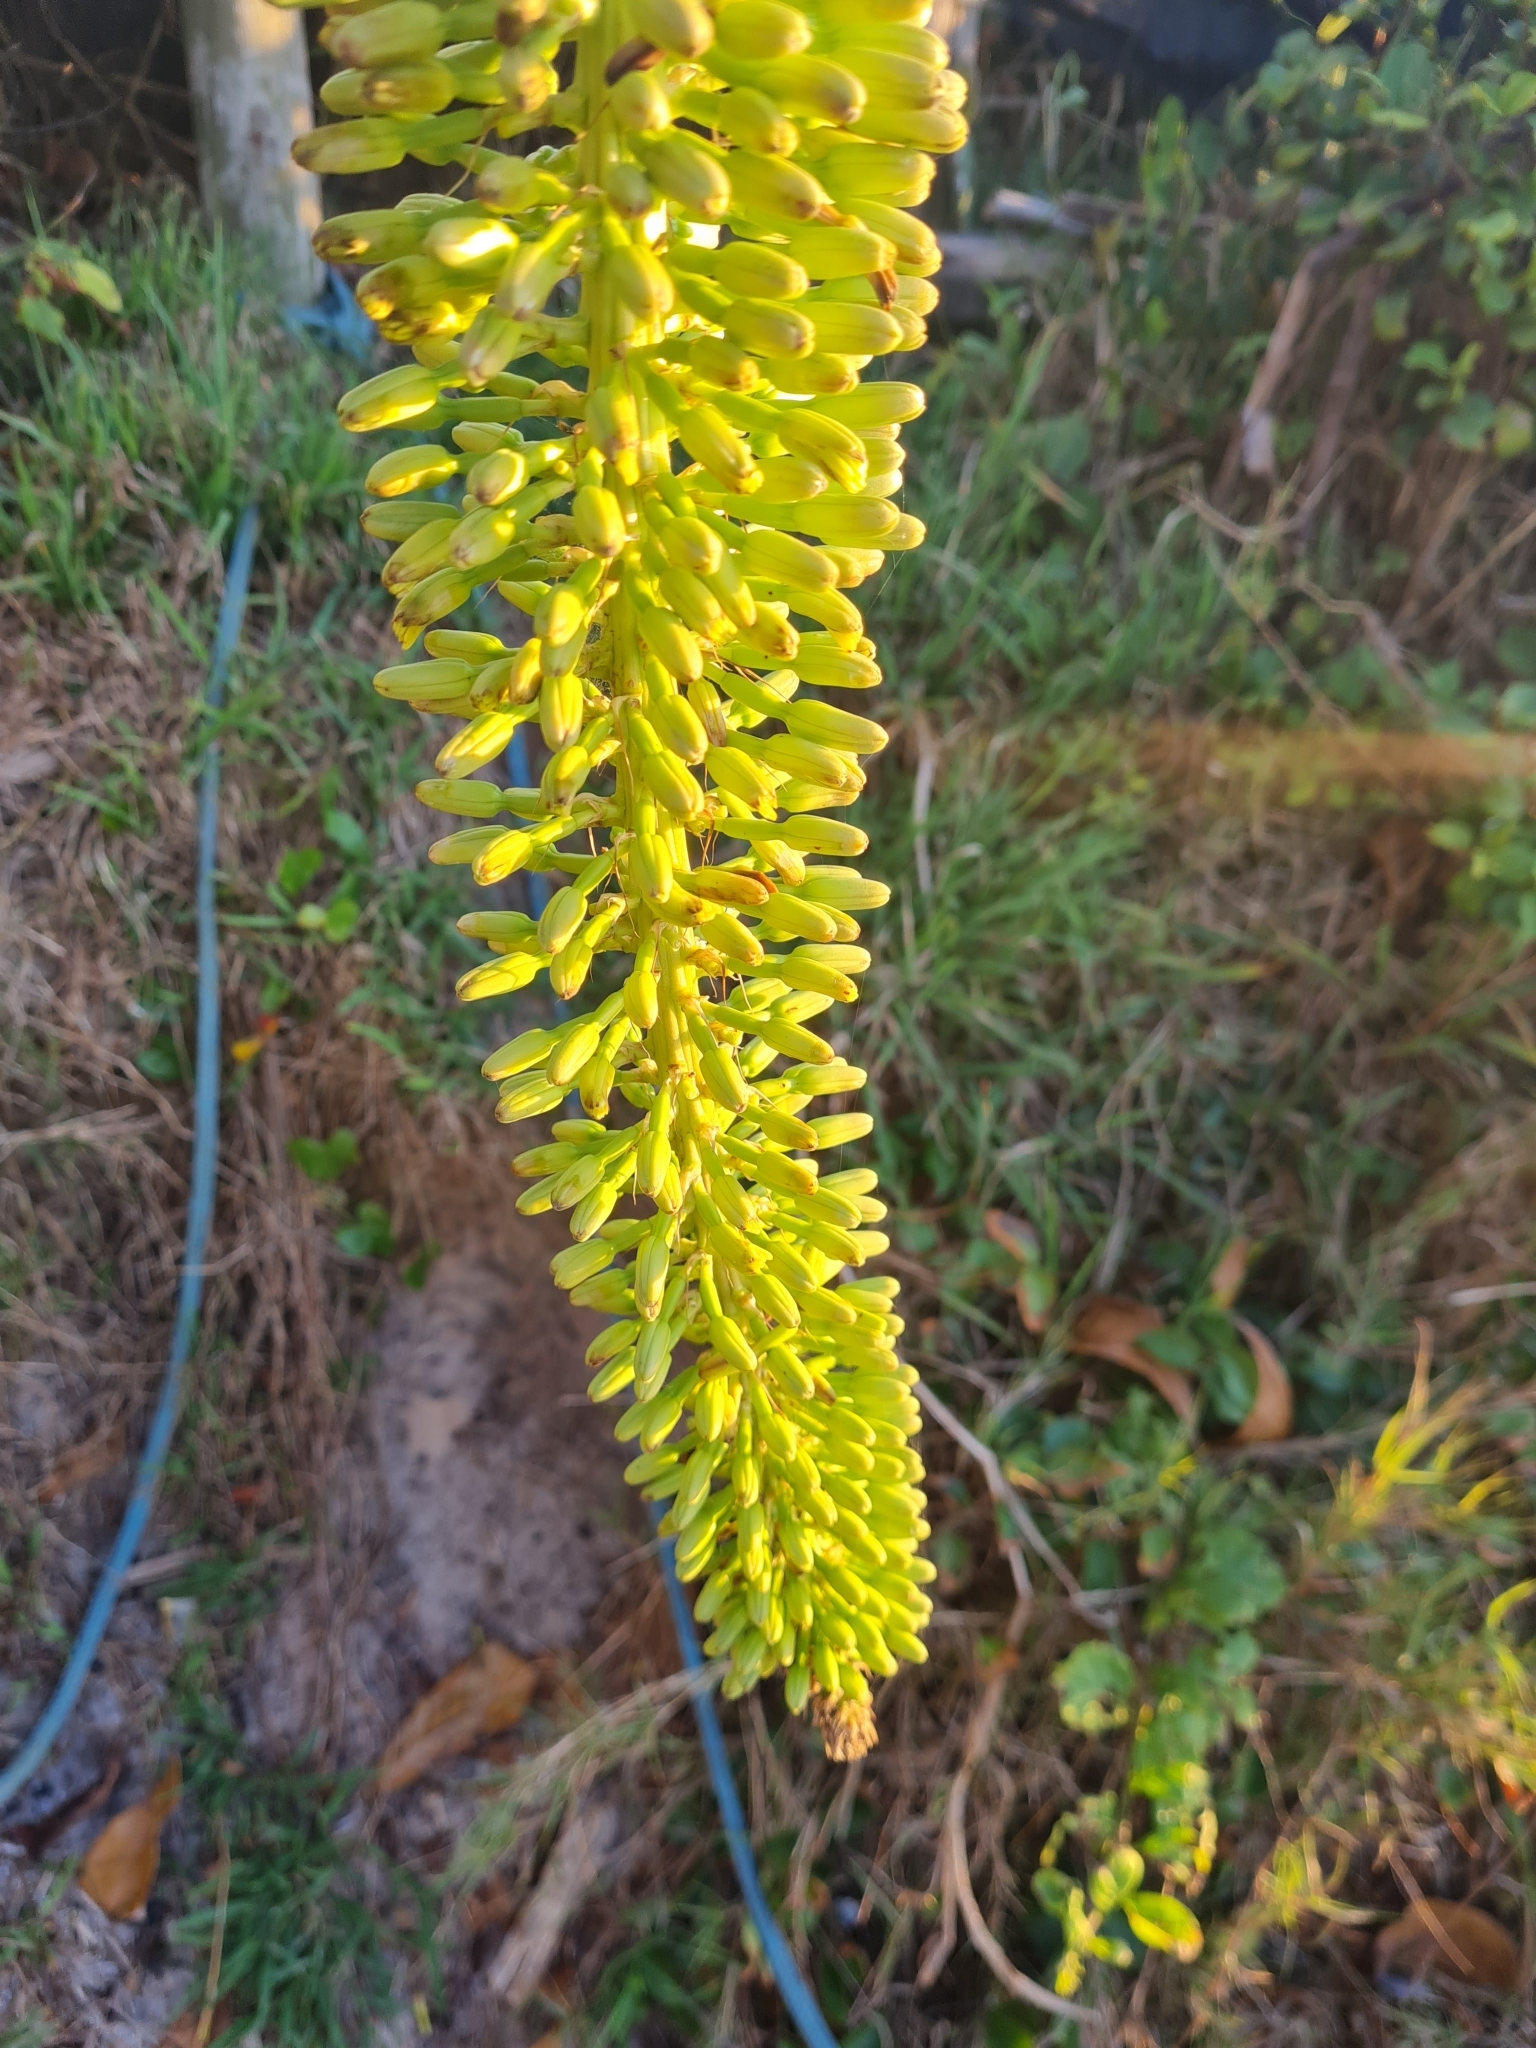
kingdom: Plantae
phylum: Tracheophyta
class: Liliopsida
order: Asparagales
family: Asparagaceae
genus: Agave
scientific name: Agave attenuata
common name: Fox tail agave
